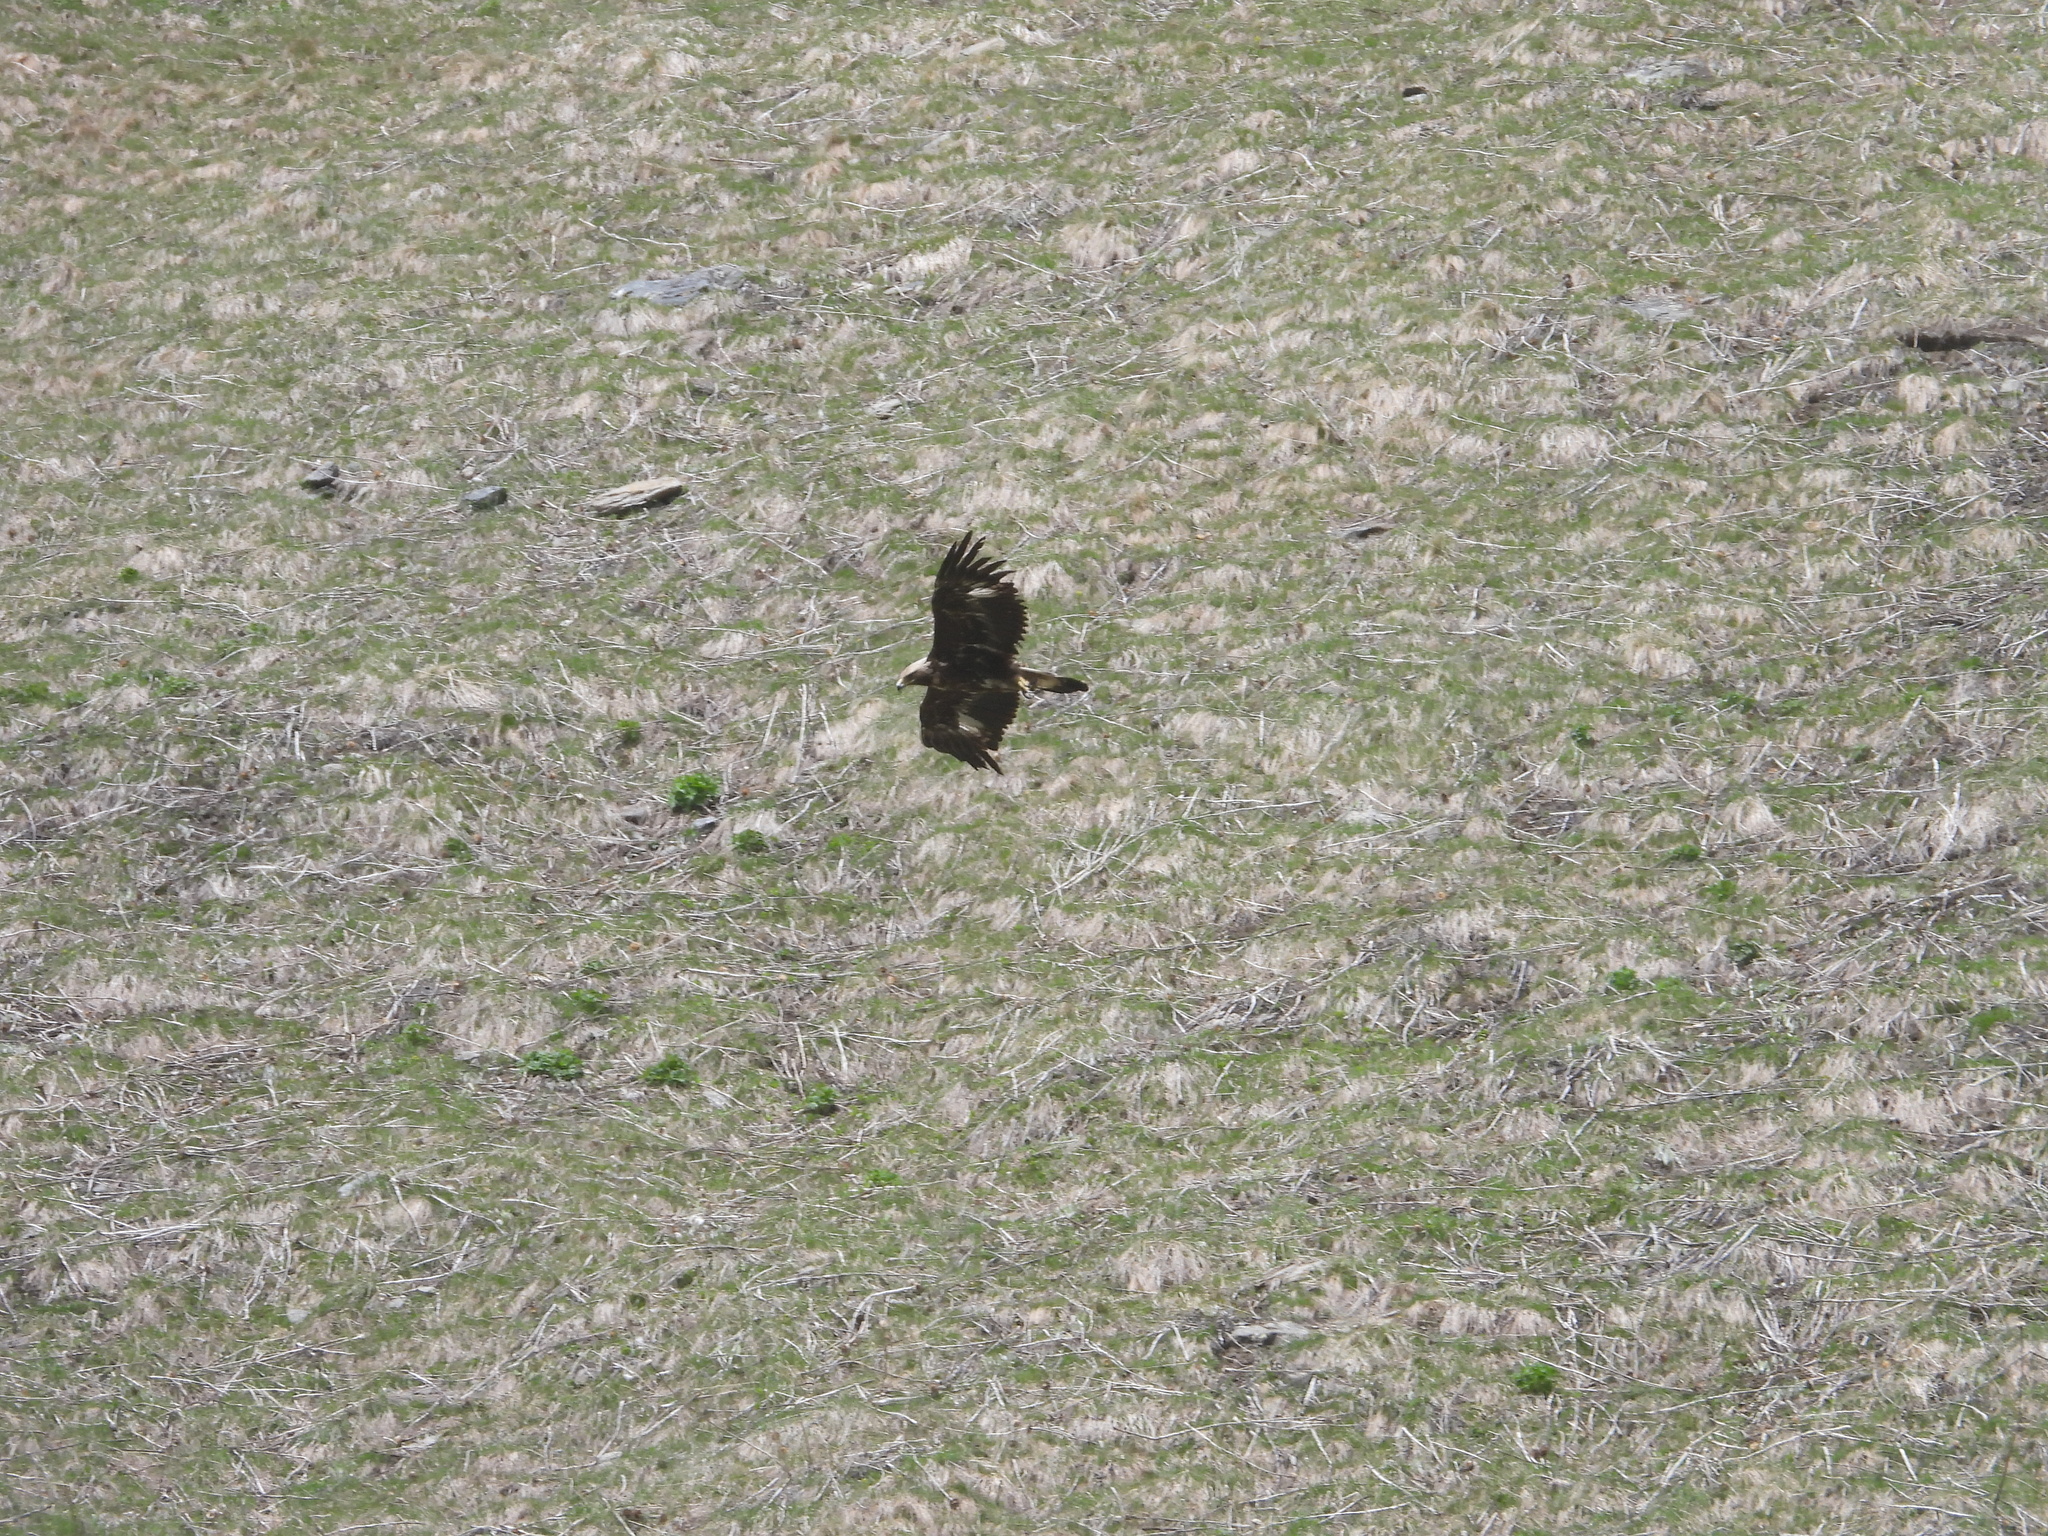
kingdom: Animalia
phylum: Chordata
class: Aves
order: Accipitriformes
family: Accipitridae
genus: Aquila
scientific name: Aquila chrysaetos
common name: Golden eagle
